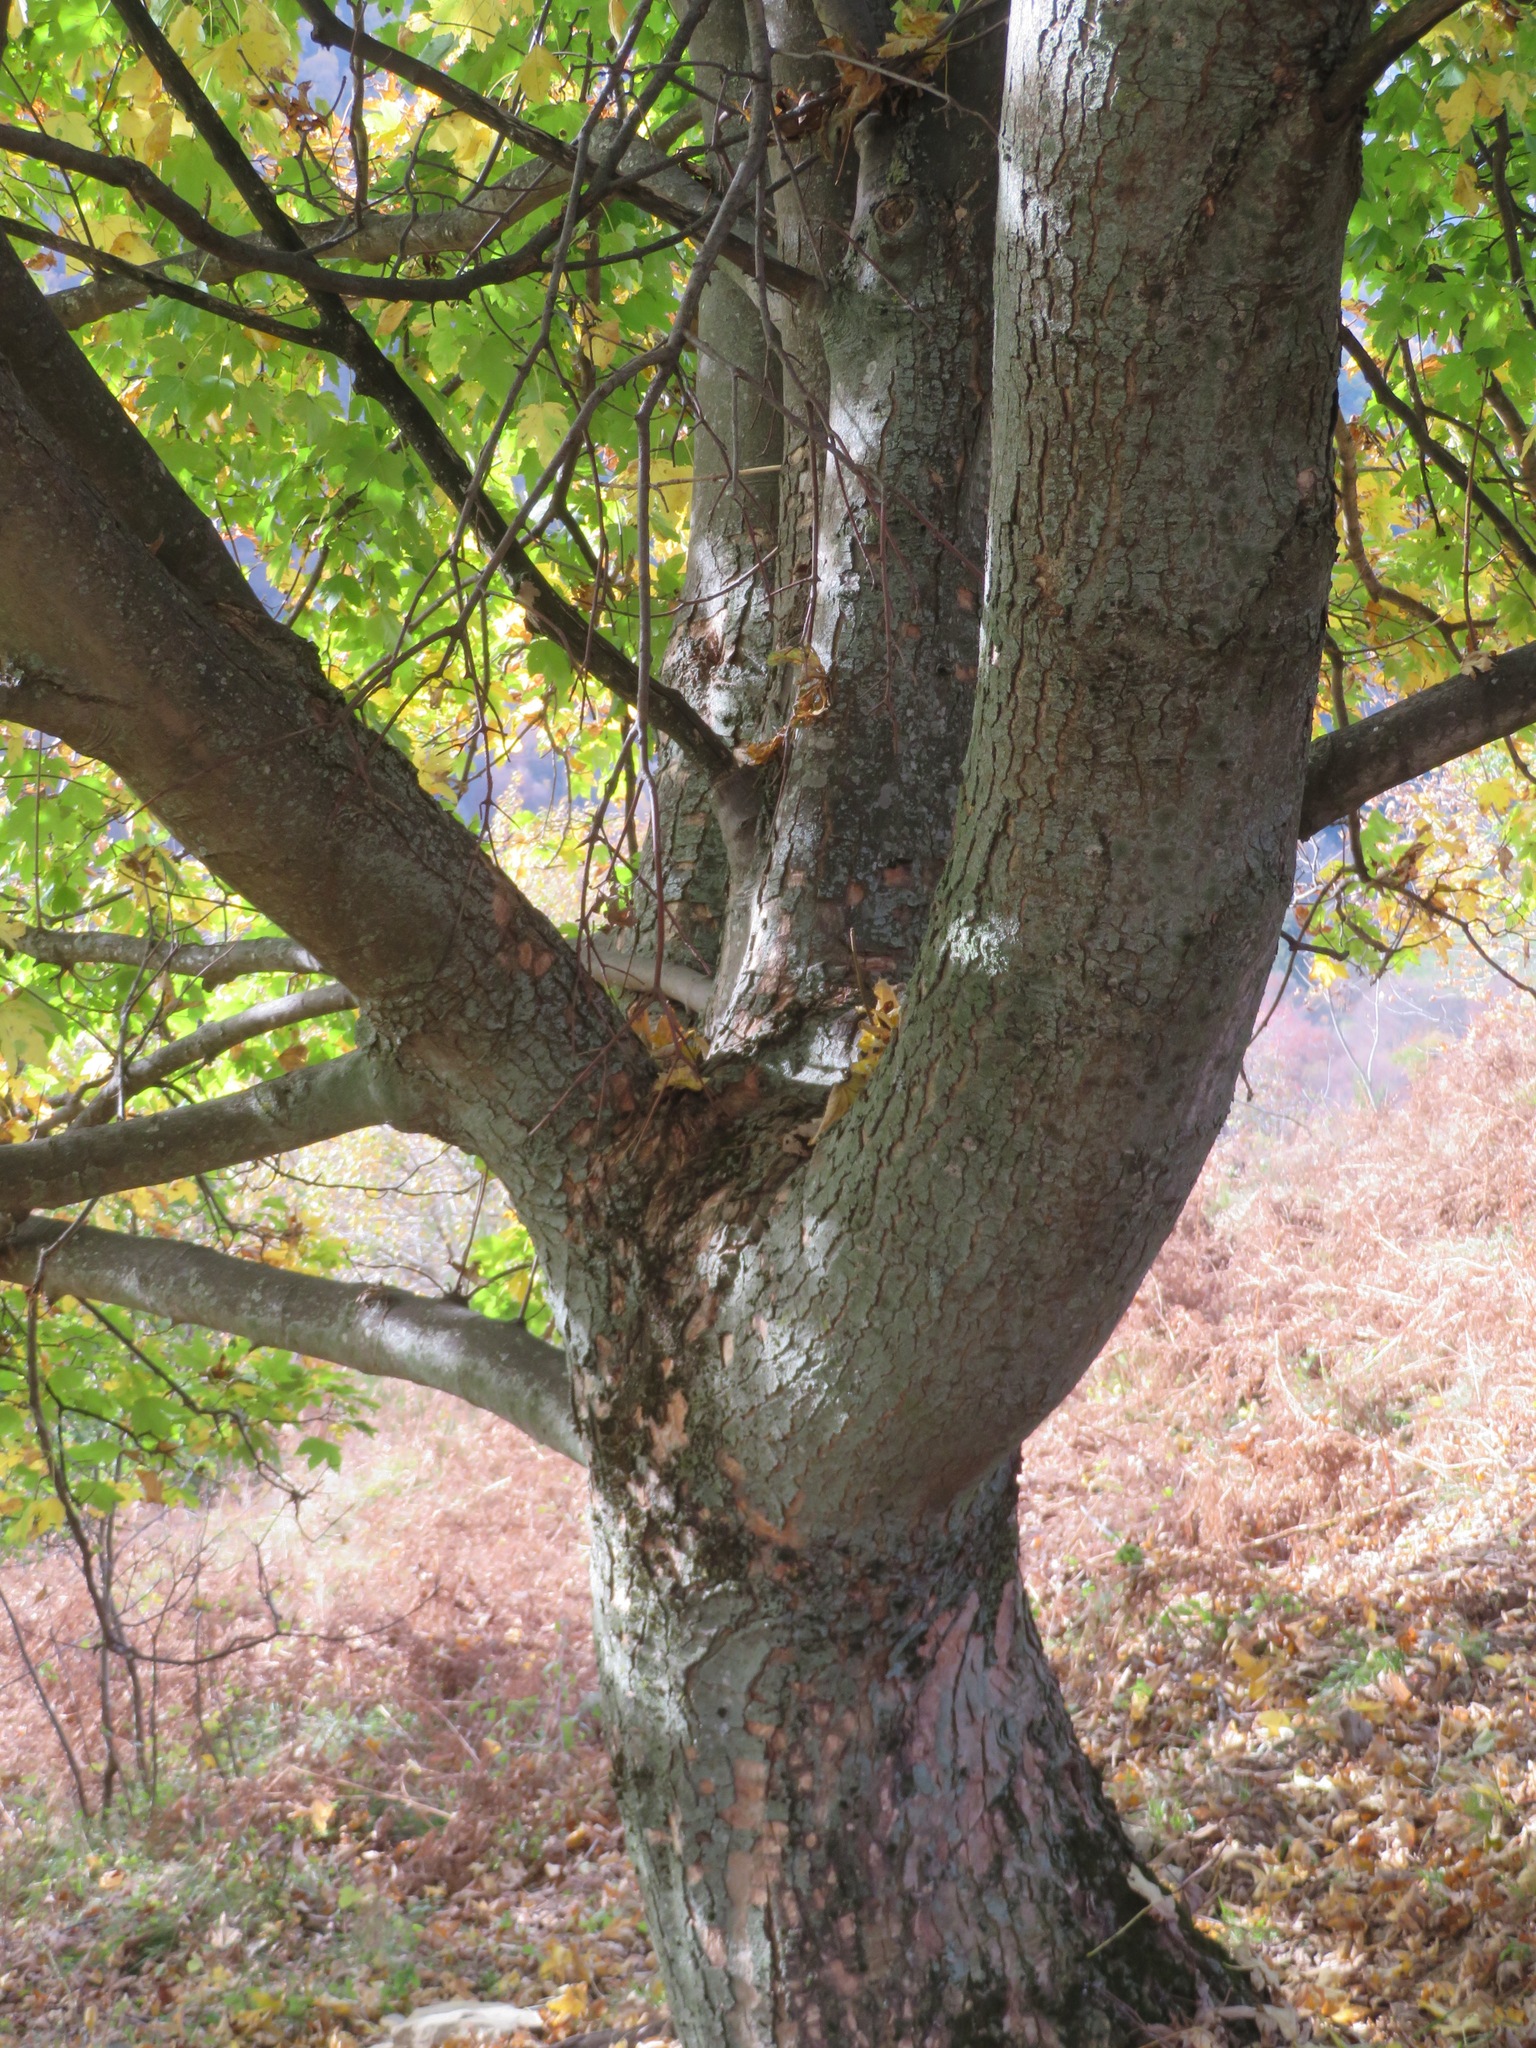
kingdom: Plantae
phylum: Tracheophyta
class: Magnoliopsida
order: Sapindales
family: Sapindaceae
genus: Acer
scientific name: Acer pseudoplatanus
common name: Sycamore
